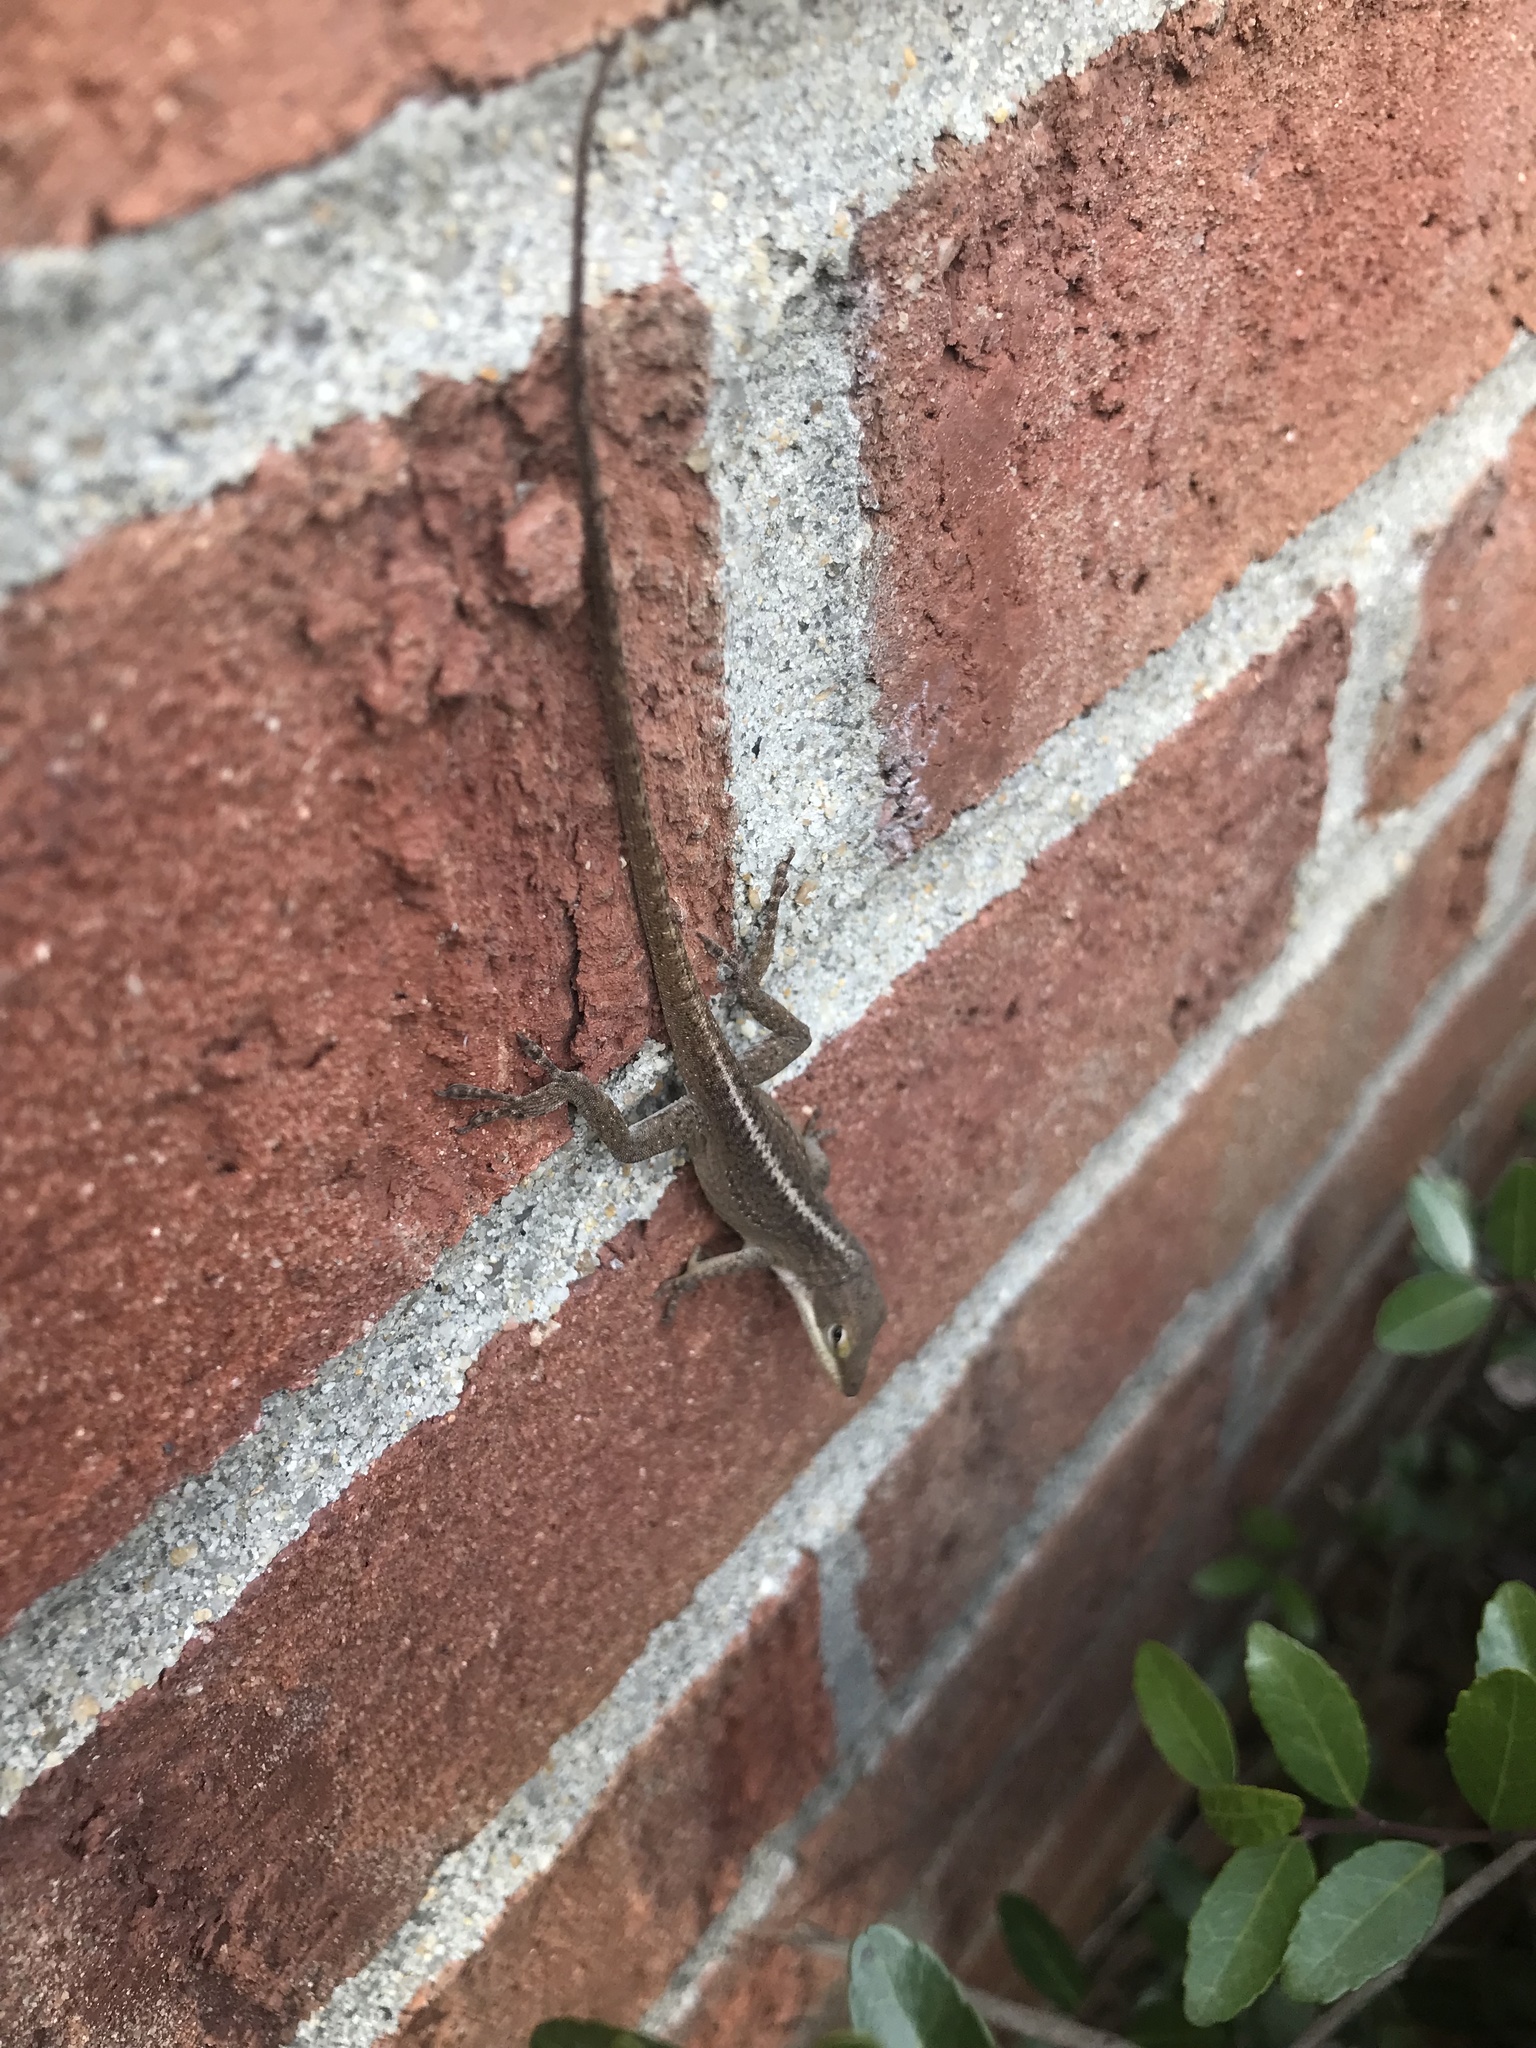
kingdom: Animalia
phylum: Chordata
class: Squamata
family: Dactyloidae
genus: Anolis
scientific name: Anolis carolinensis
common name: Green anole
